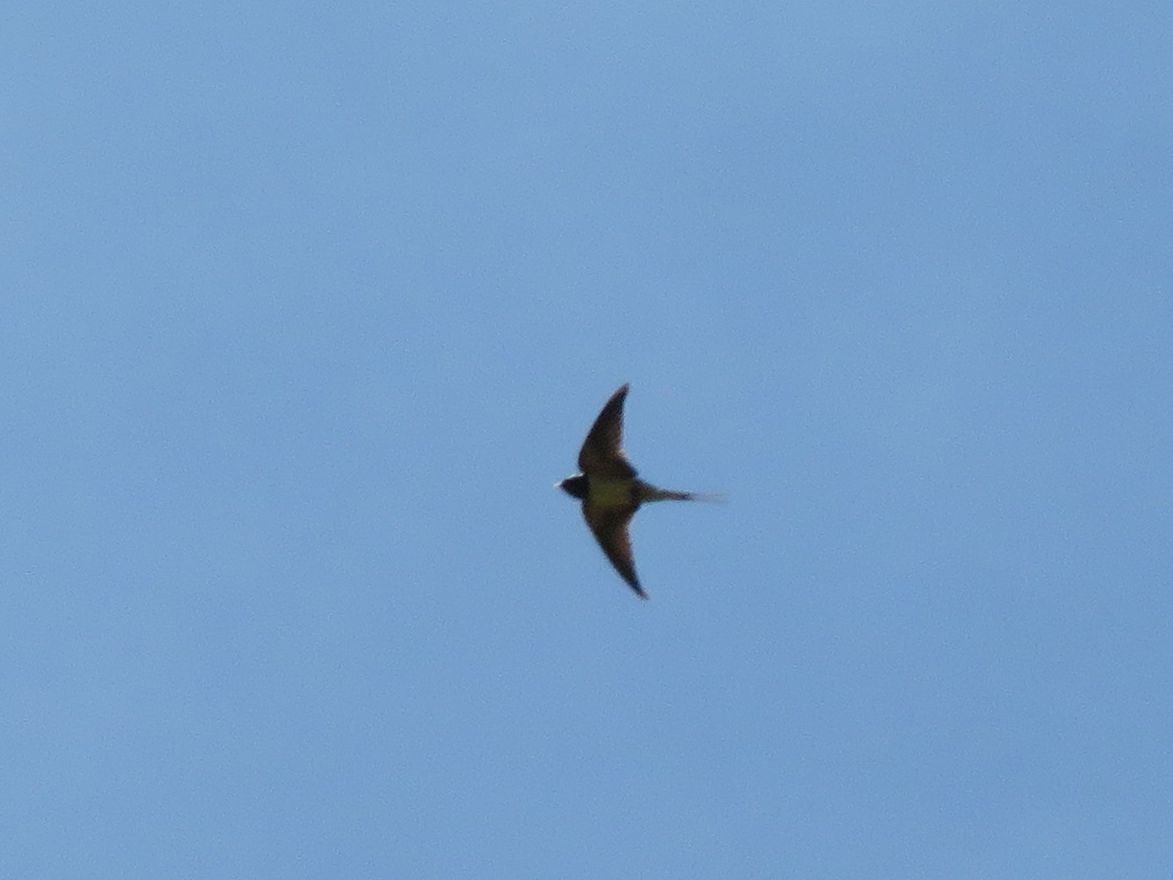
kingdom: Animalia
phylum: Chordata
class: Aves
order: Passeriformes
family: Hirundinidae
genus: Hirundo
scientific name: Hirundo rustica
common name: Barn swallow
